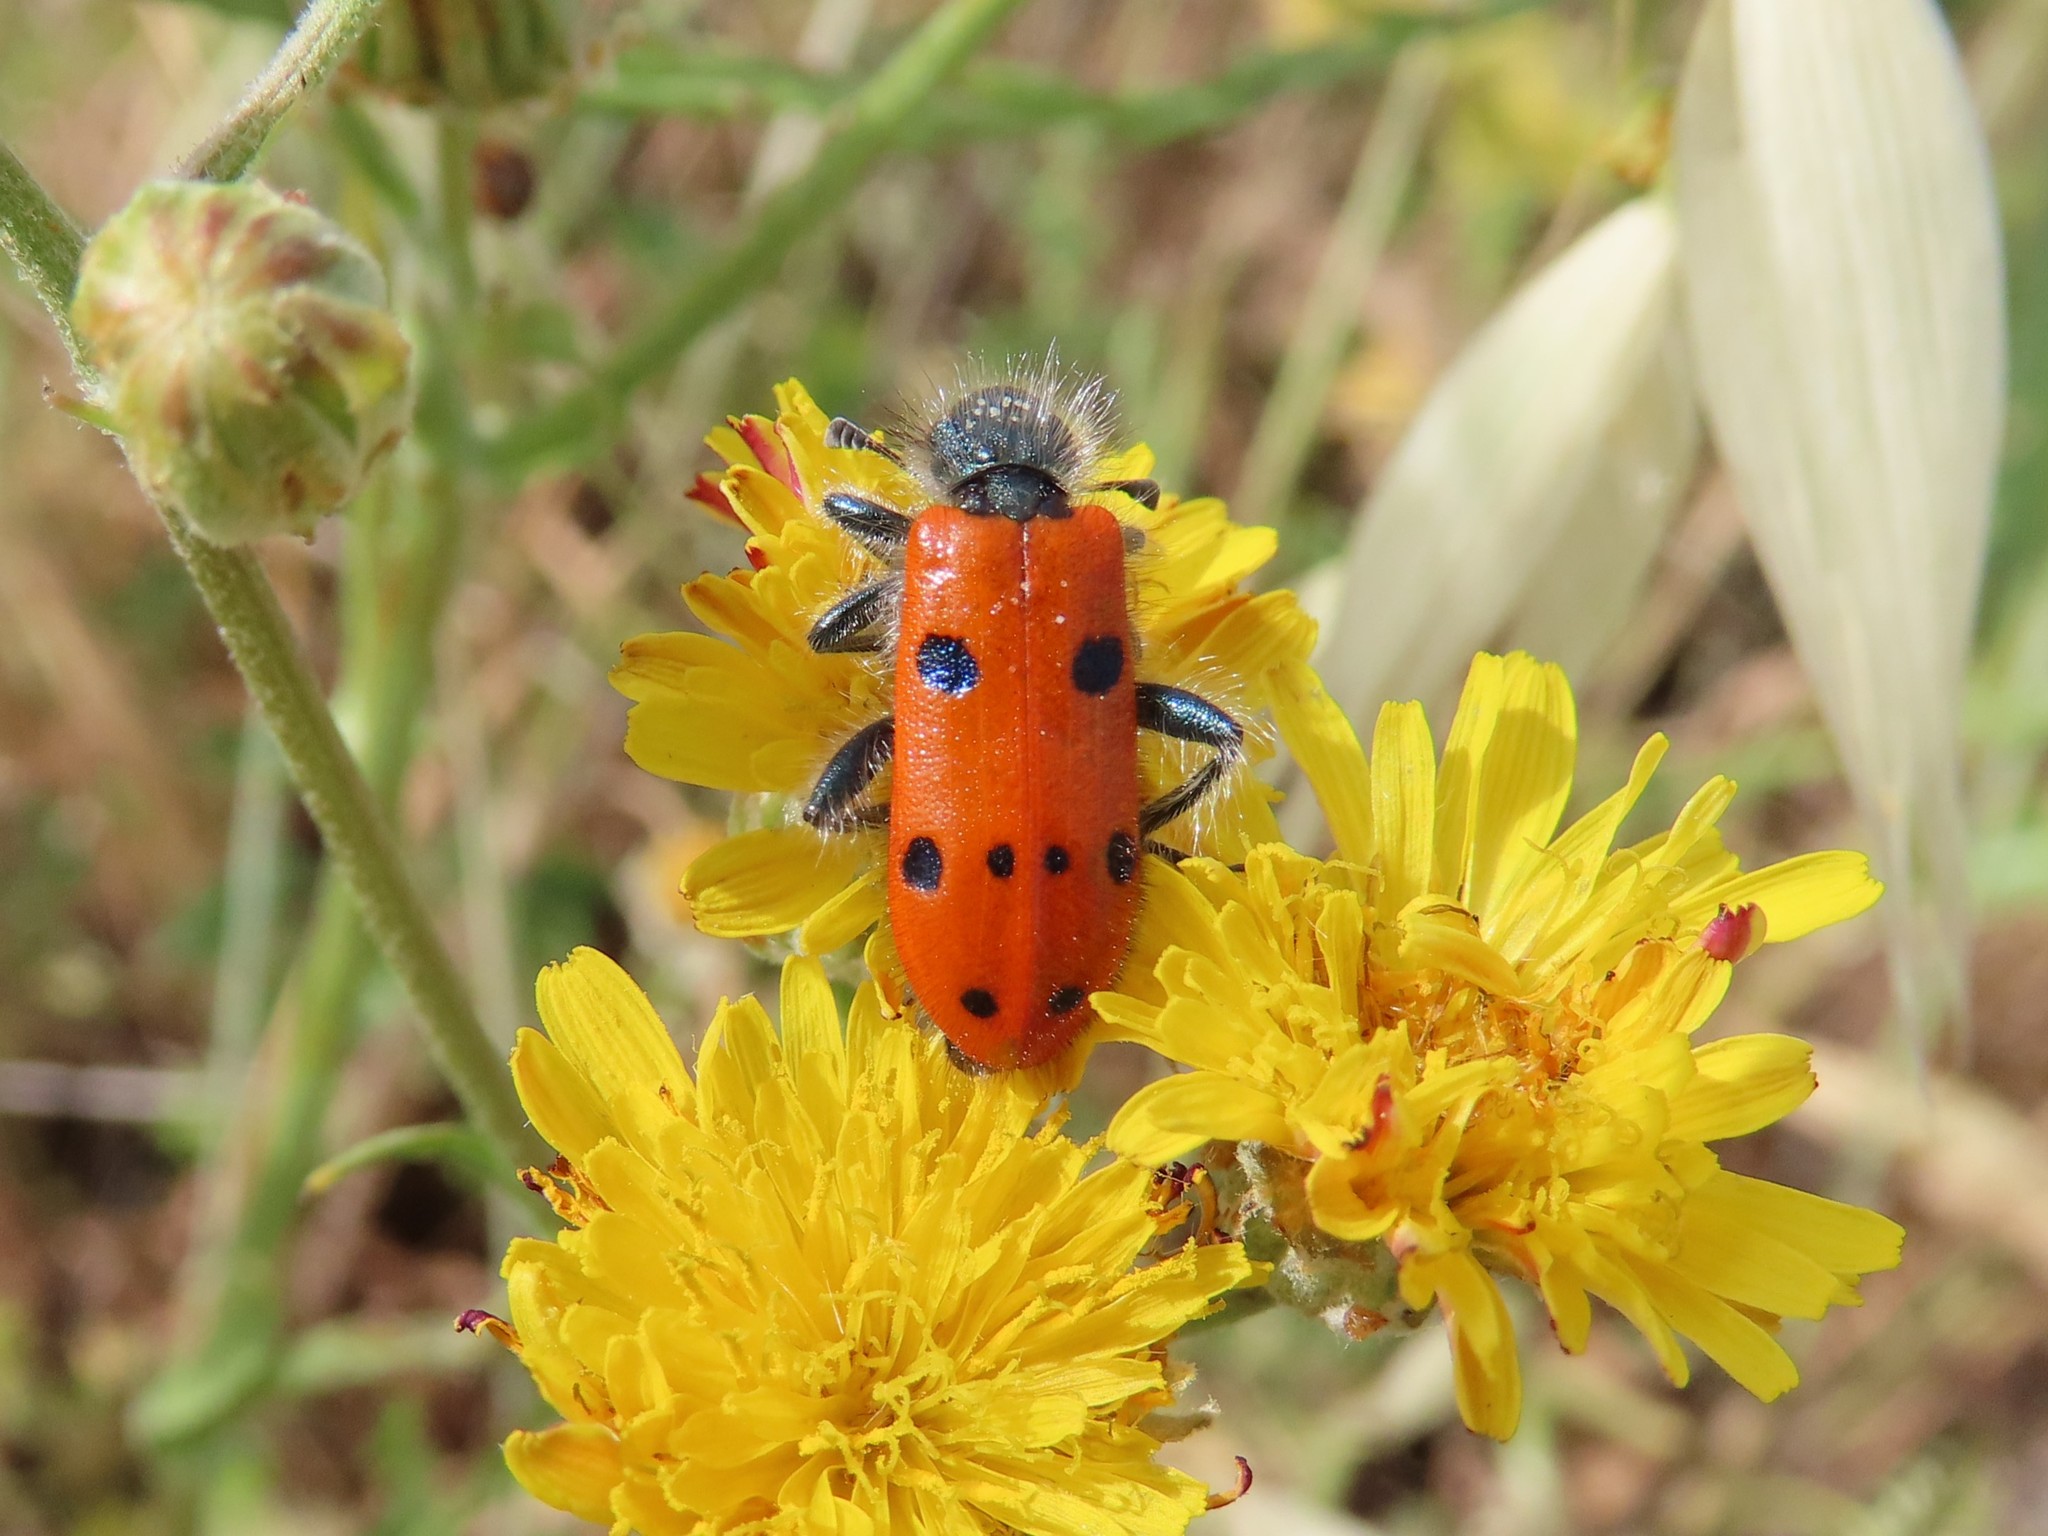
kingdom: Animalia
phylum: Arthropoda
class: Insecta
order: Coleoptera
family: Cleridae
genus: Trichodes
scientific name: Trichodes octopunctatus
